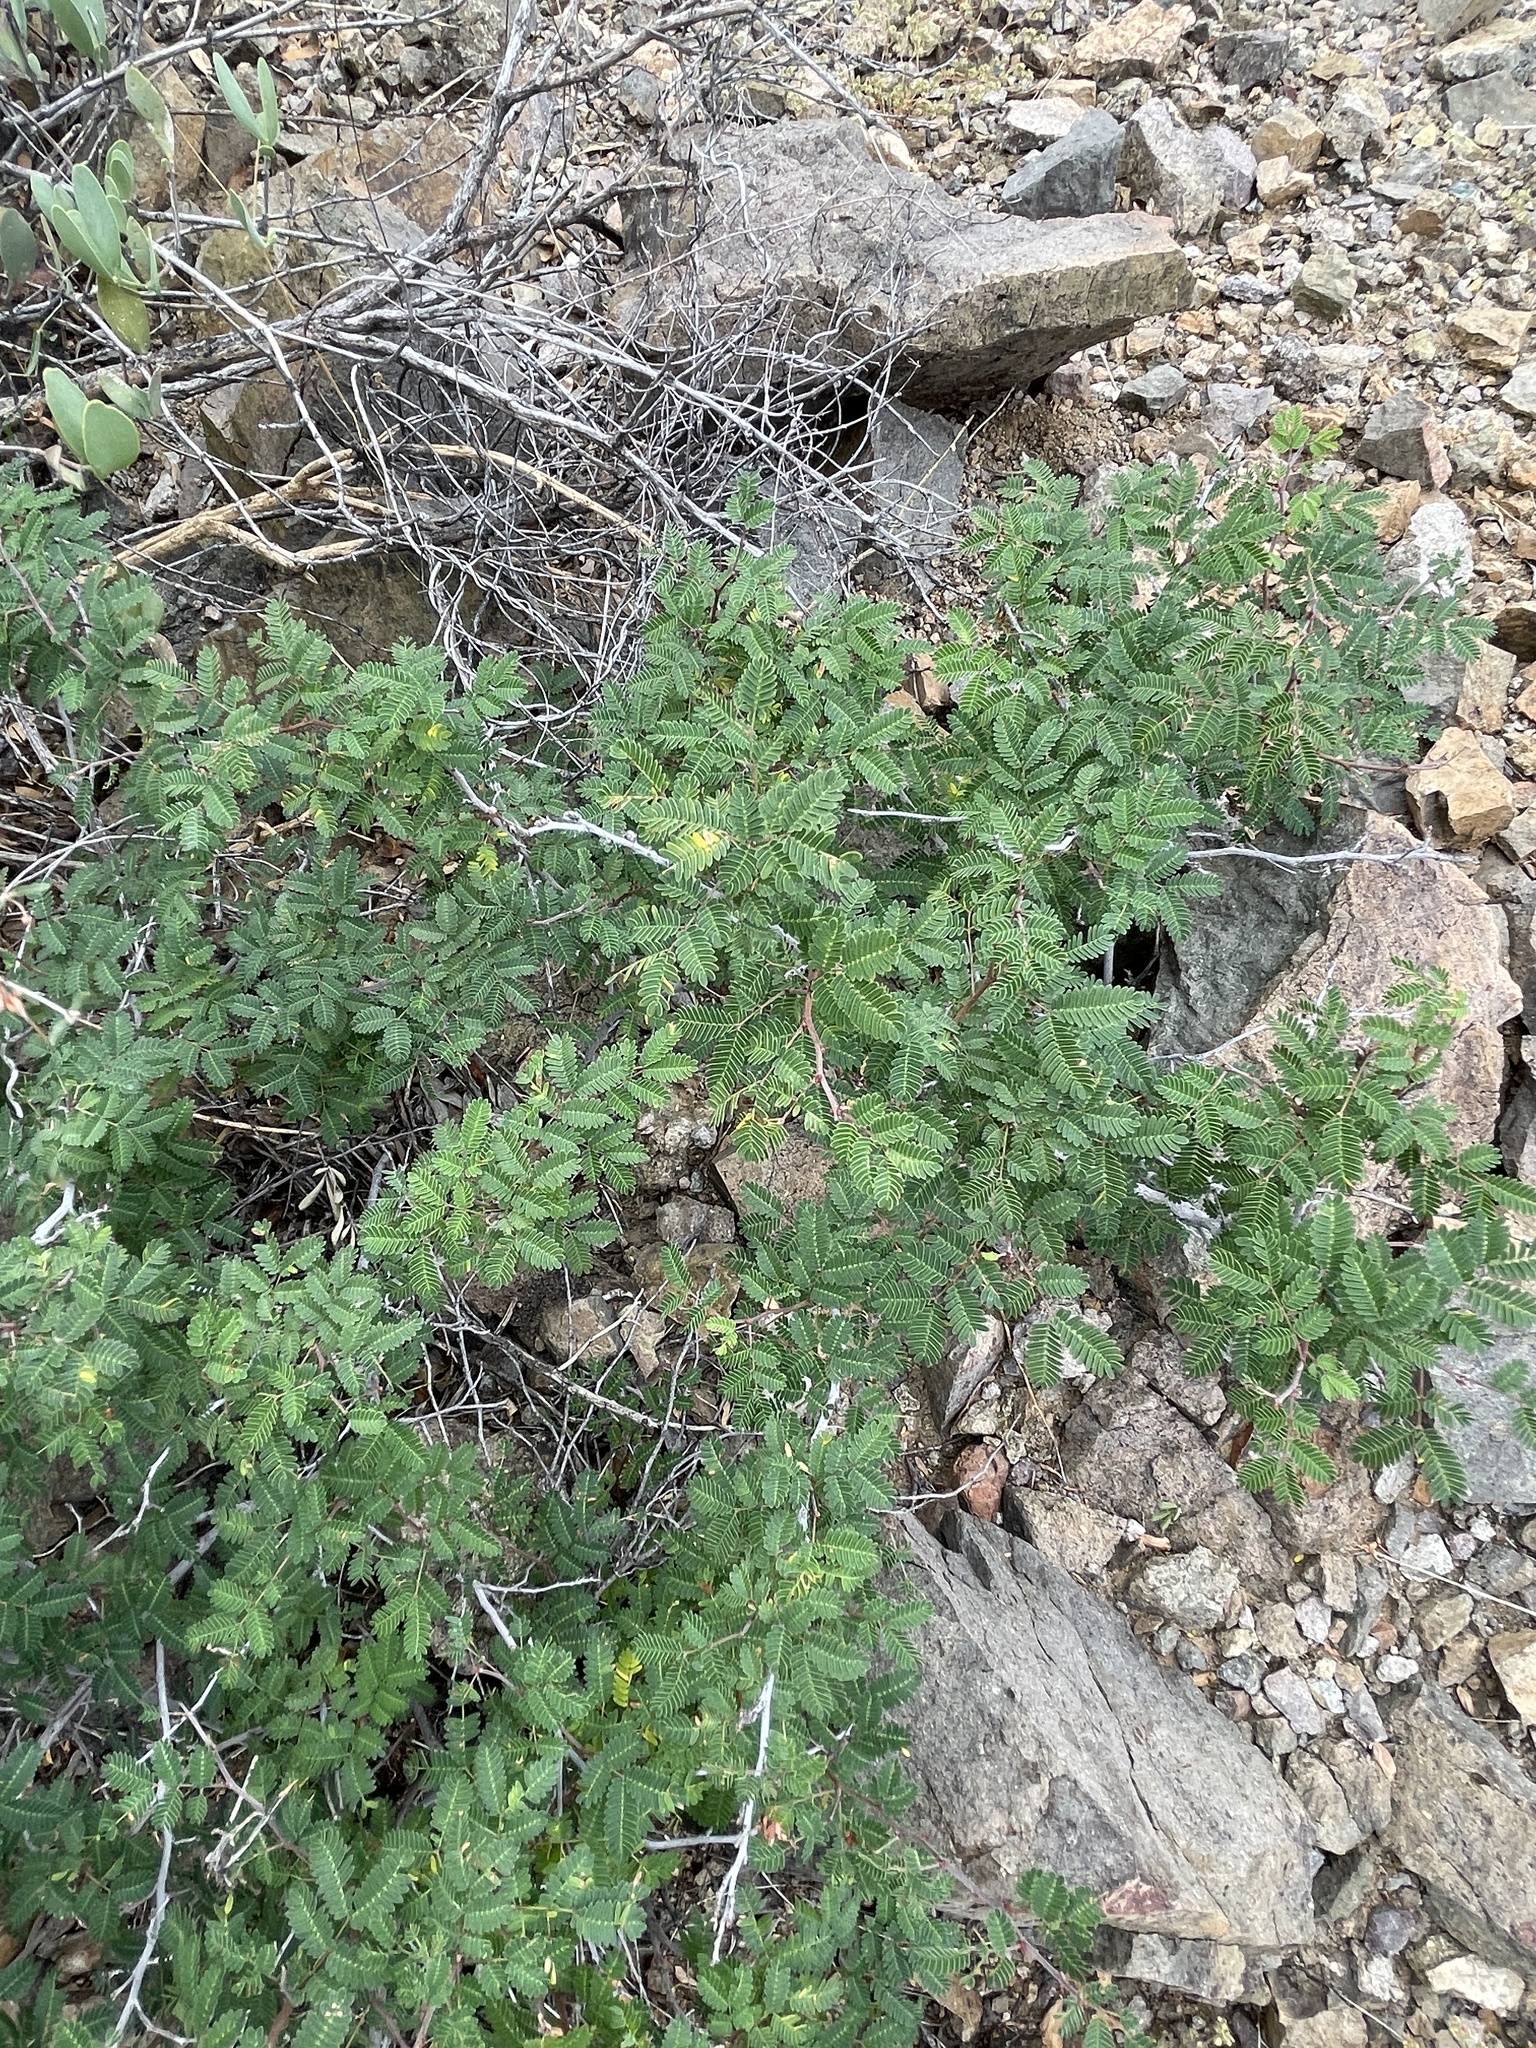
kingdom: Plantae
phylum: Tracheophyta
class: Magnoliopsida
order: Fabales
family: Fabaceae
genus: Calliandra
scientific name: Calliandra eriophylla
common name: Fairy-duster
